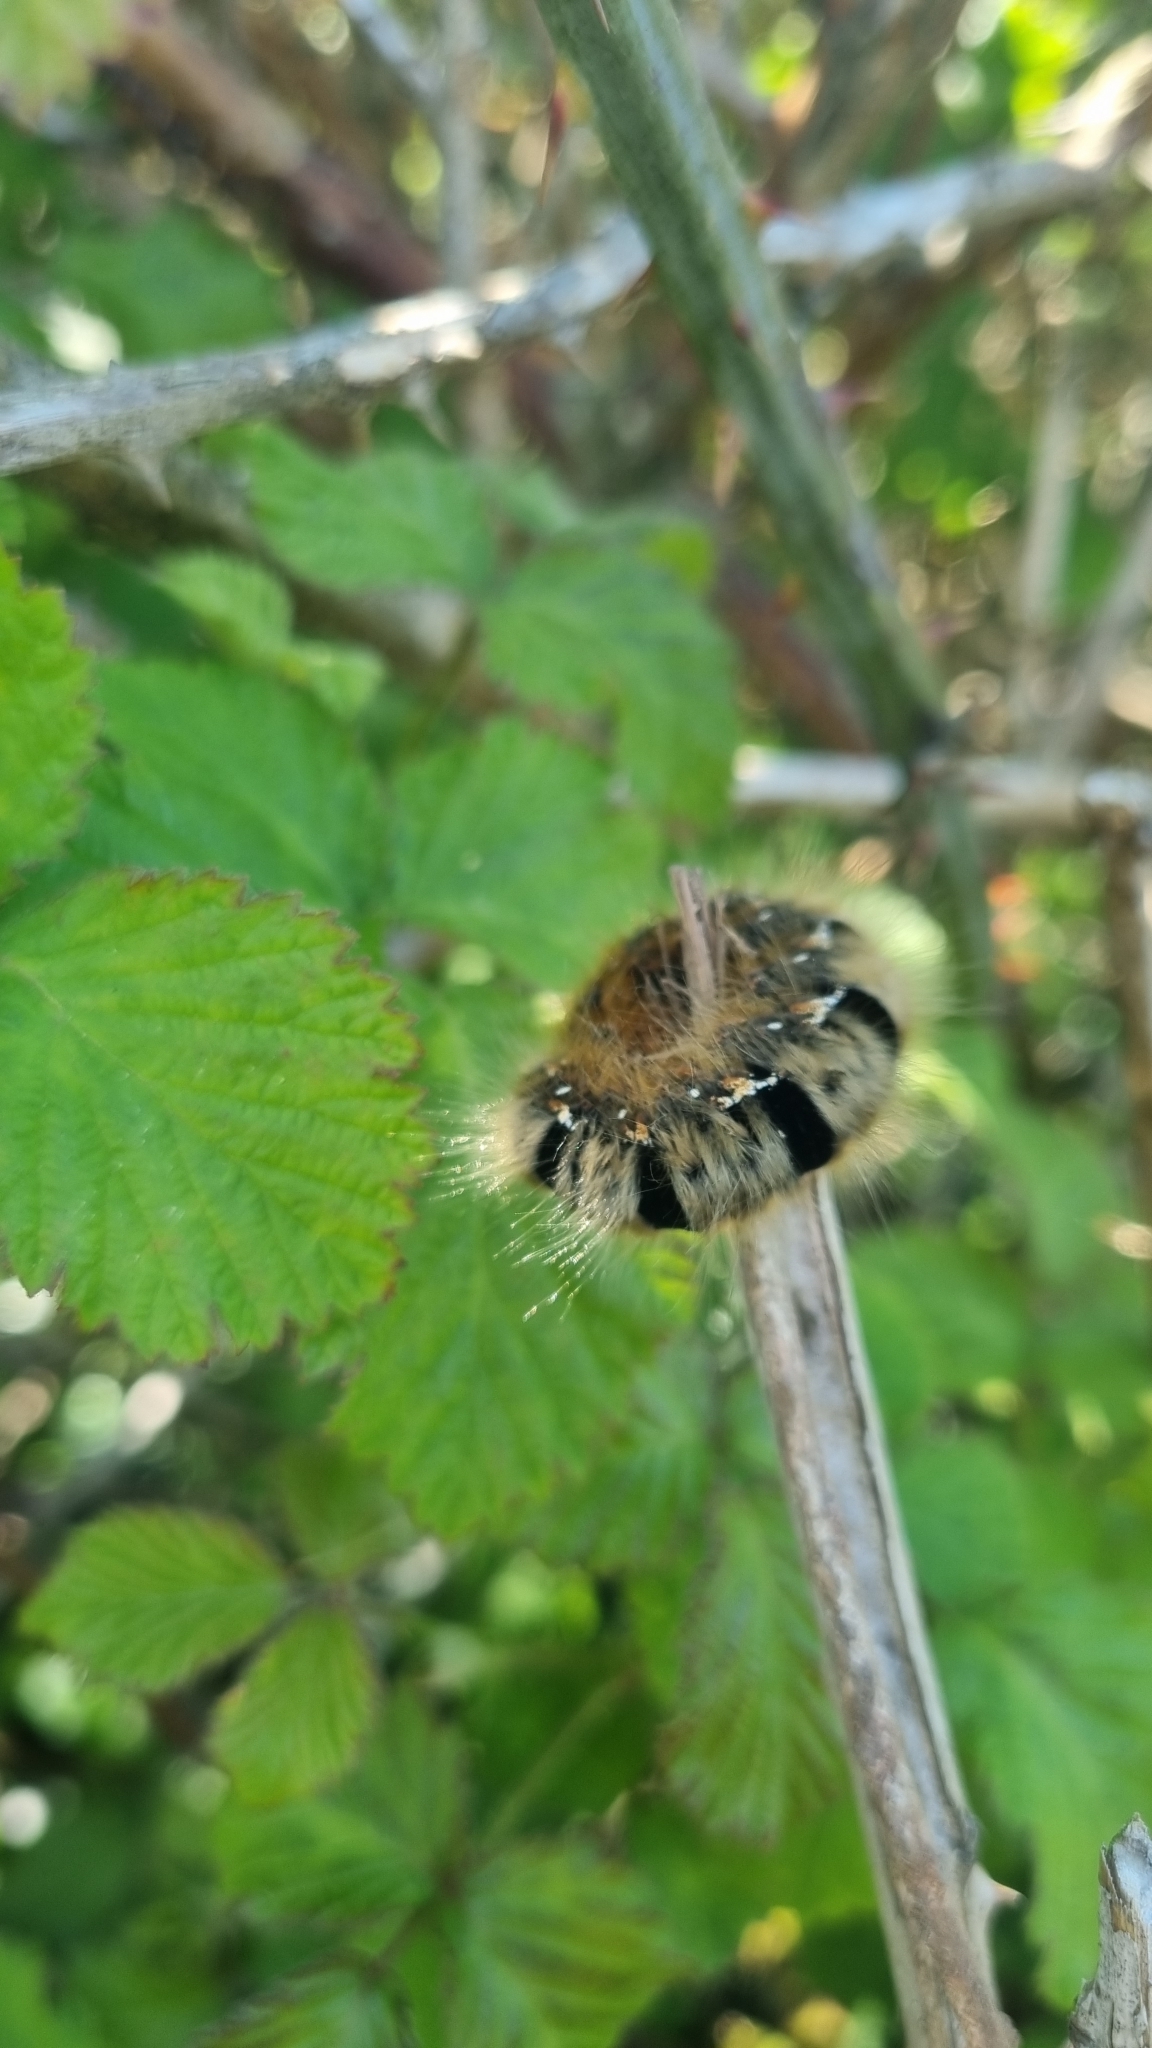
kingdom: Animalia
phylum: Arthropoda
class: Insecta
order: Lepidoptera
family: Lasiocampidae
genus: Lasiocampa
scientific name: Lasiocampa quercus
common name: Oak eggar
